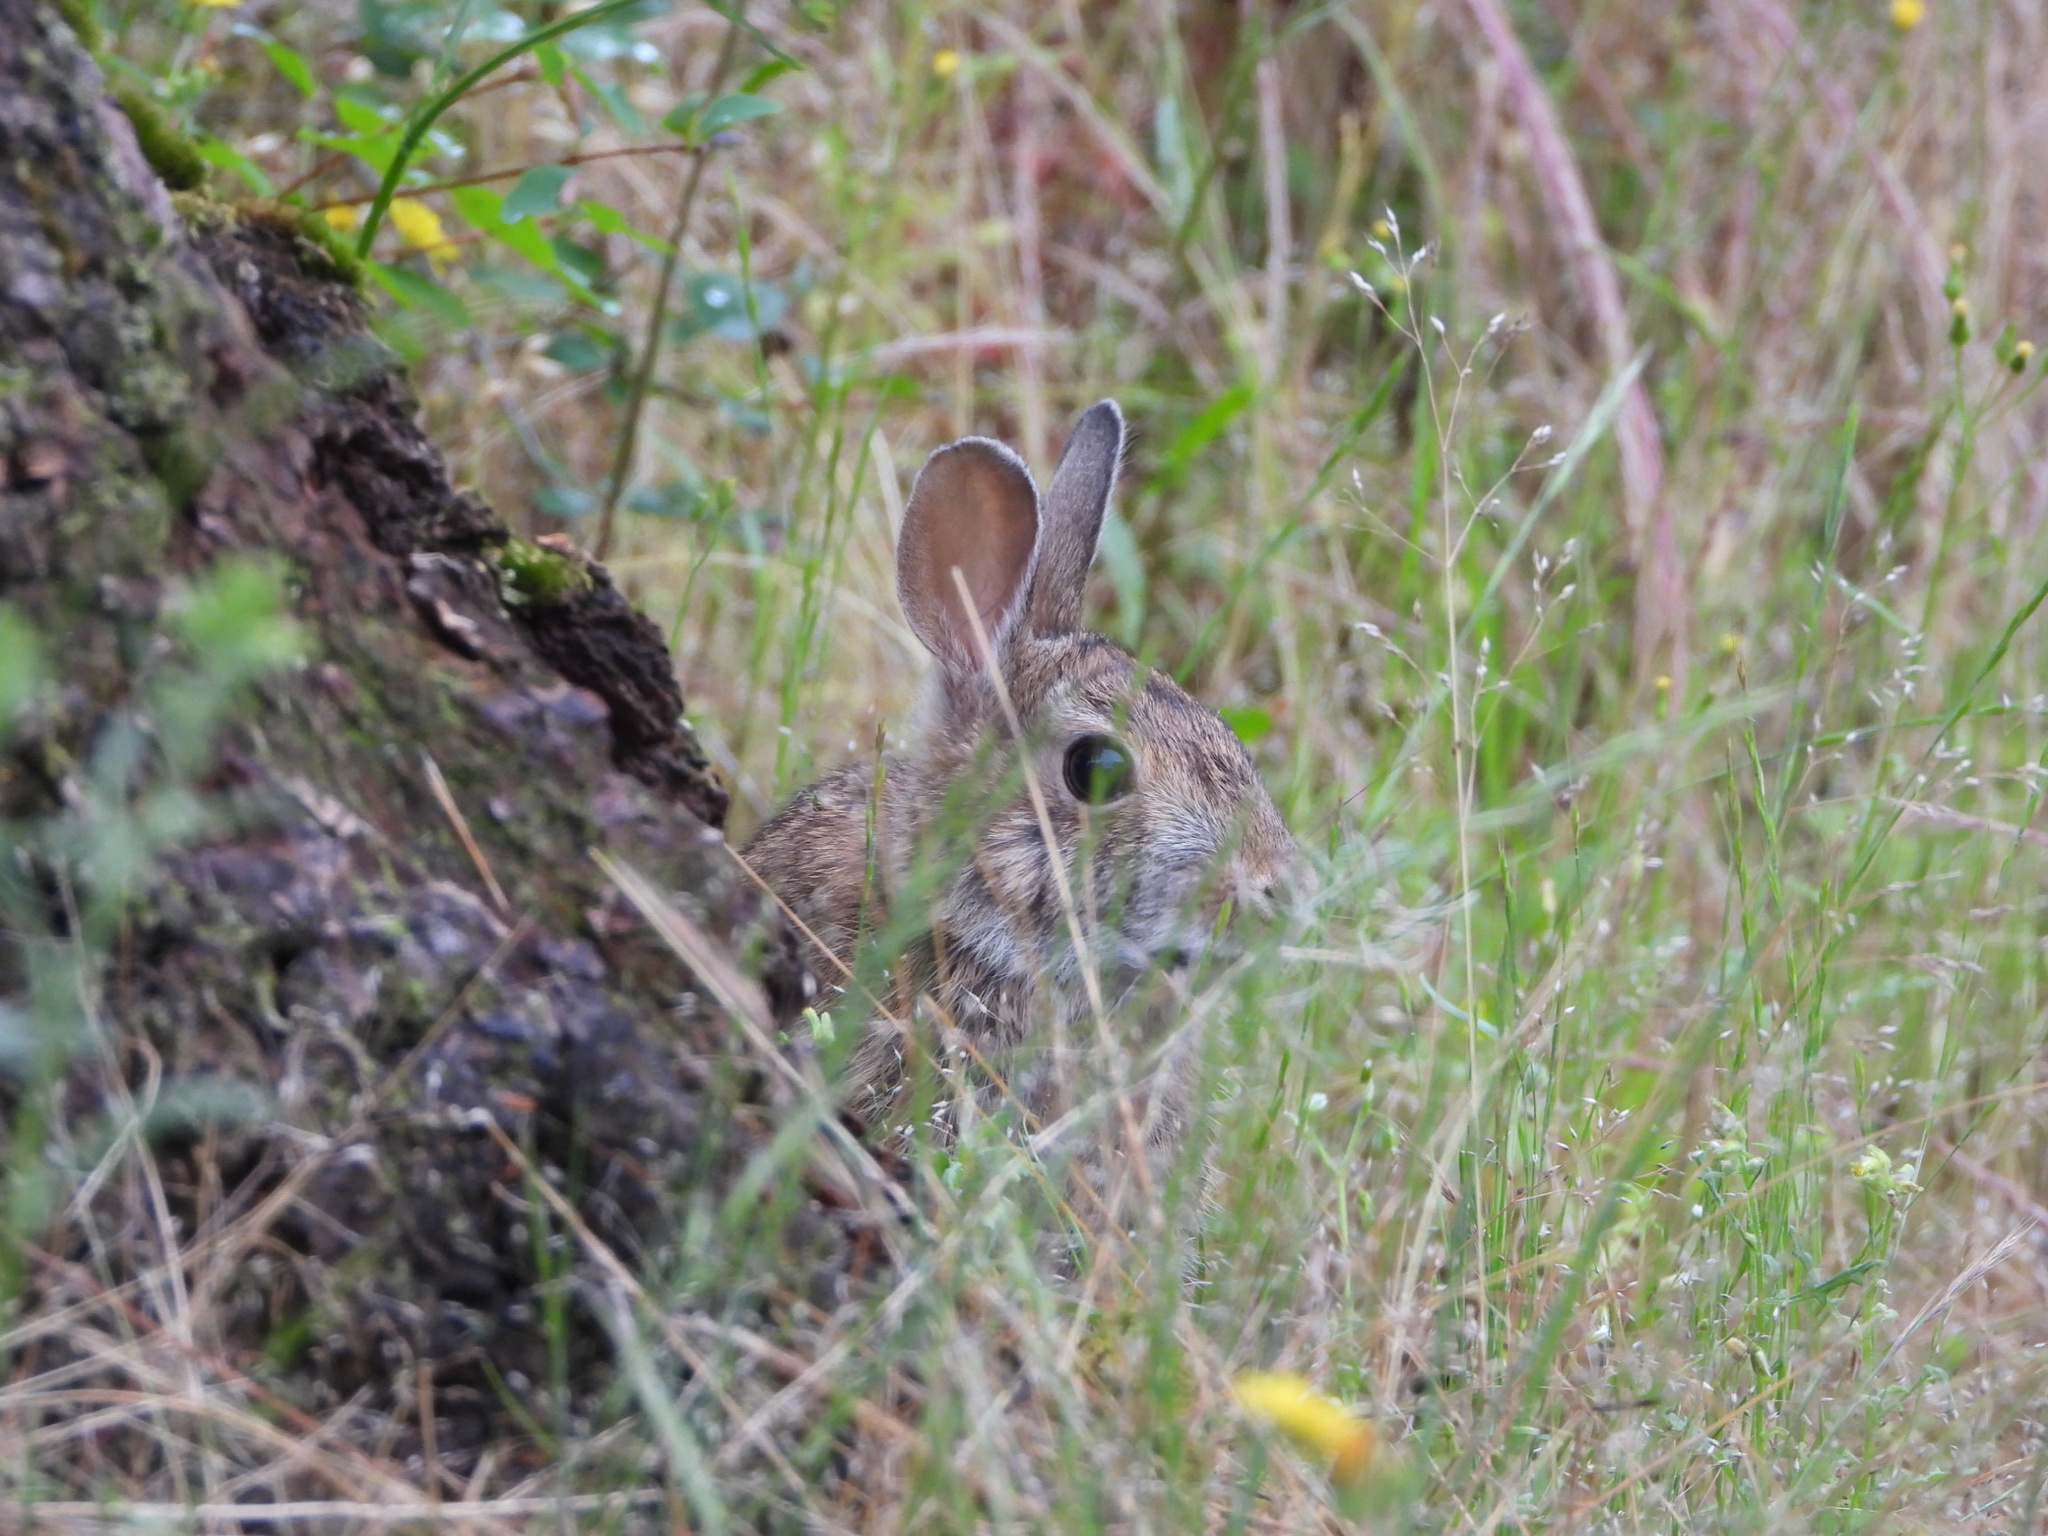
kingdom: Animalia
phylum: Chordata
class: Mammalia
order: Lagomorpha
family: Leporidae
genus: Sylvilagus
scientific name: Sylvilagus floridanus
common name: Eastern cottontail
